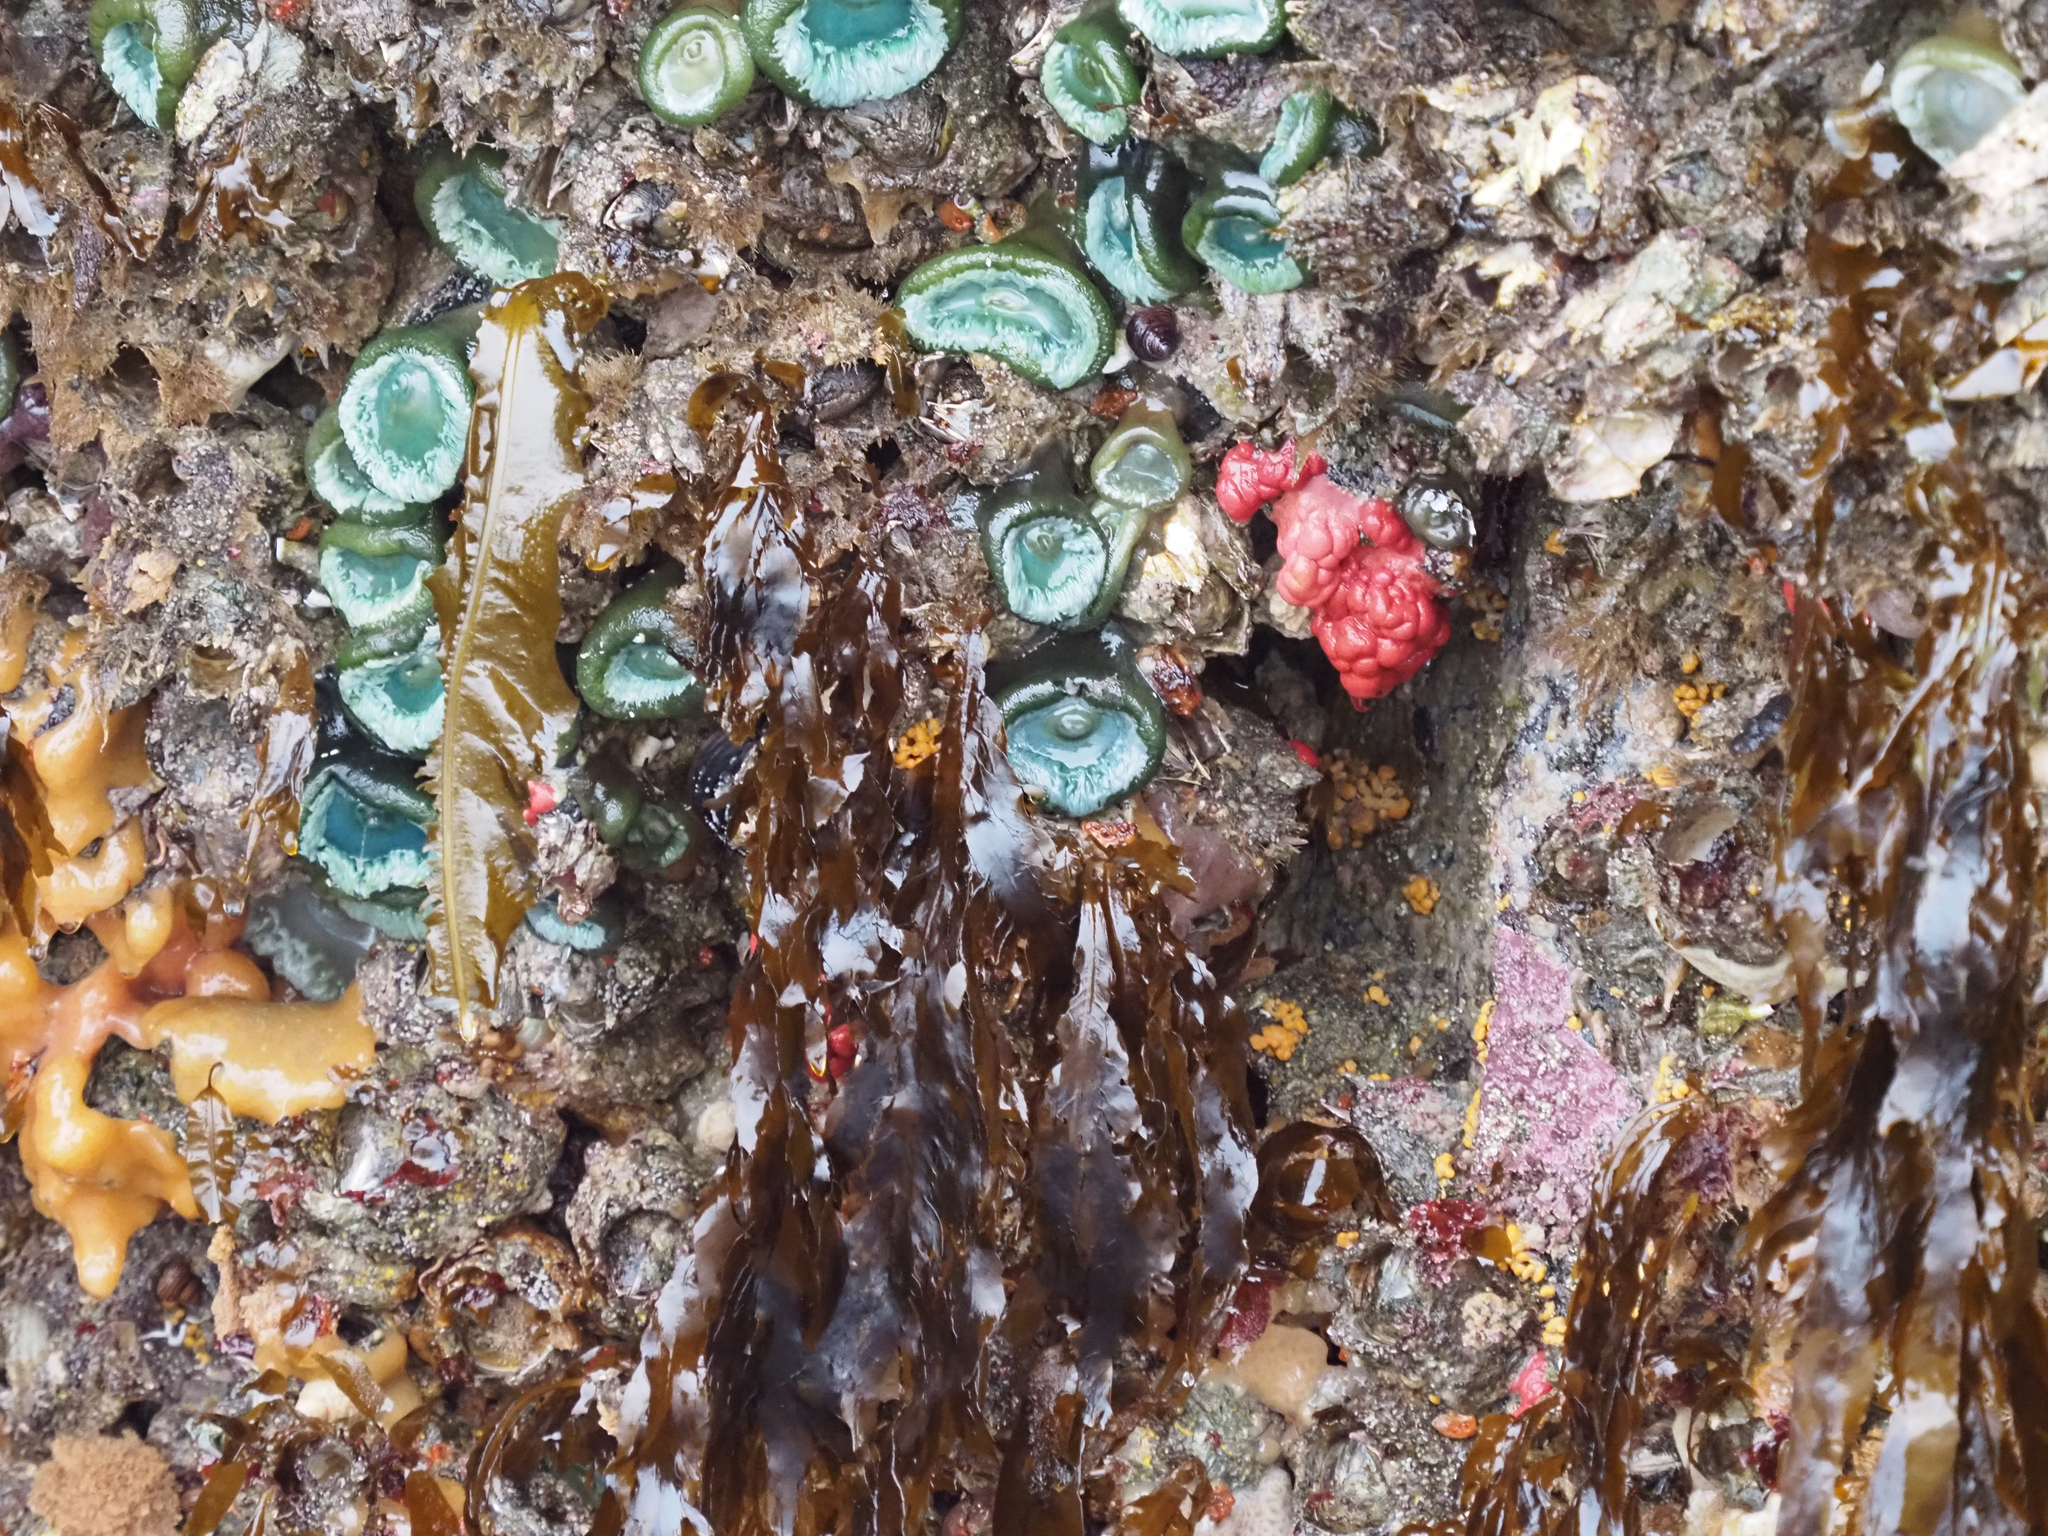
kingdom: Animalia
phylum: Bryozoa
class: Stenolaemata
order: Cyclostomatida
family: Heteroporidae
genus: Heteropora
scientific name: Heteropora pacifica
